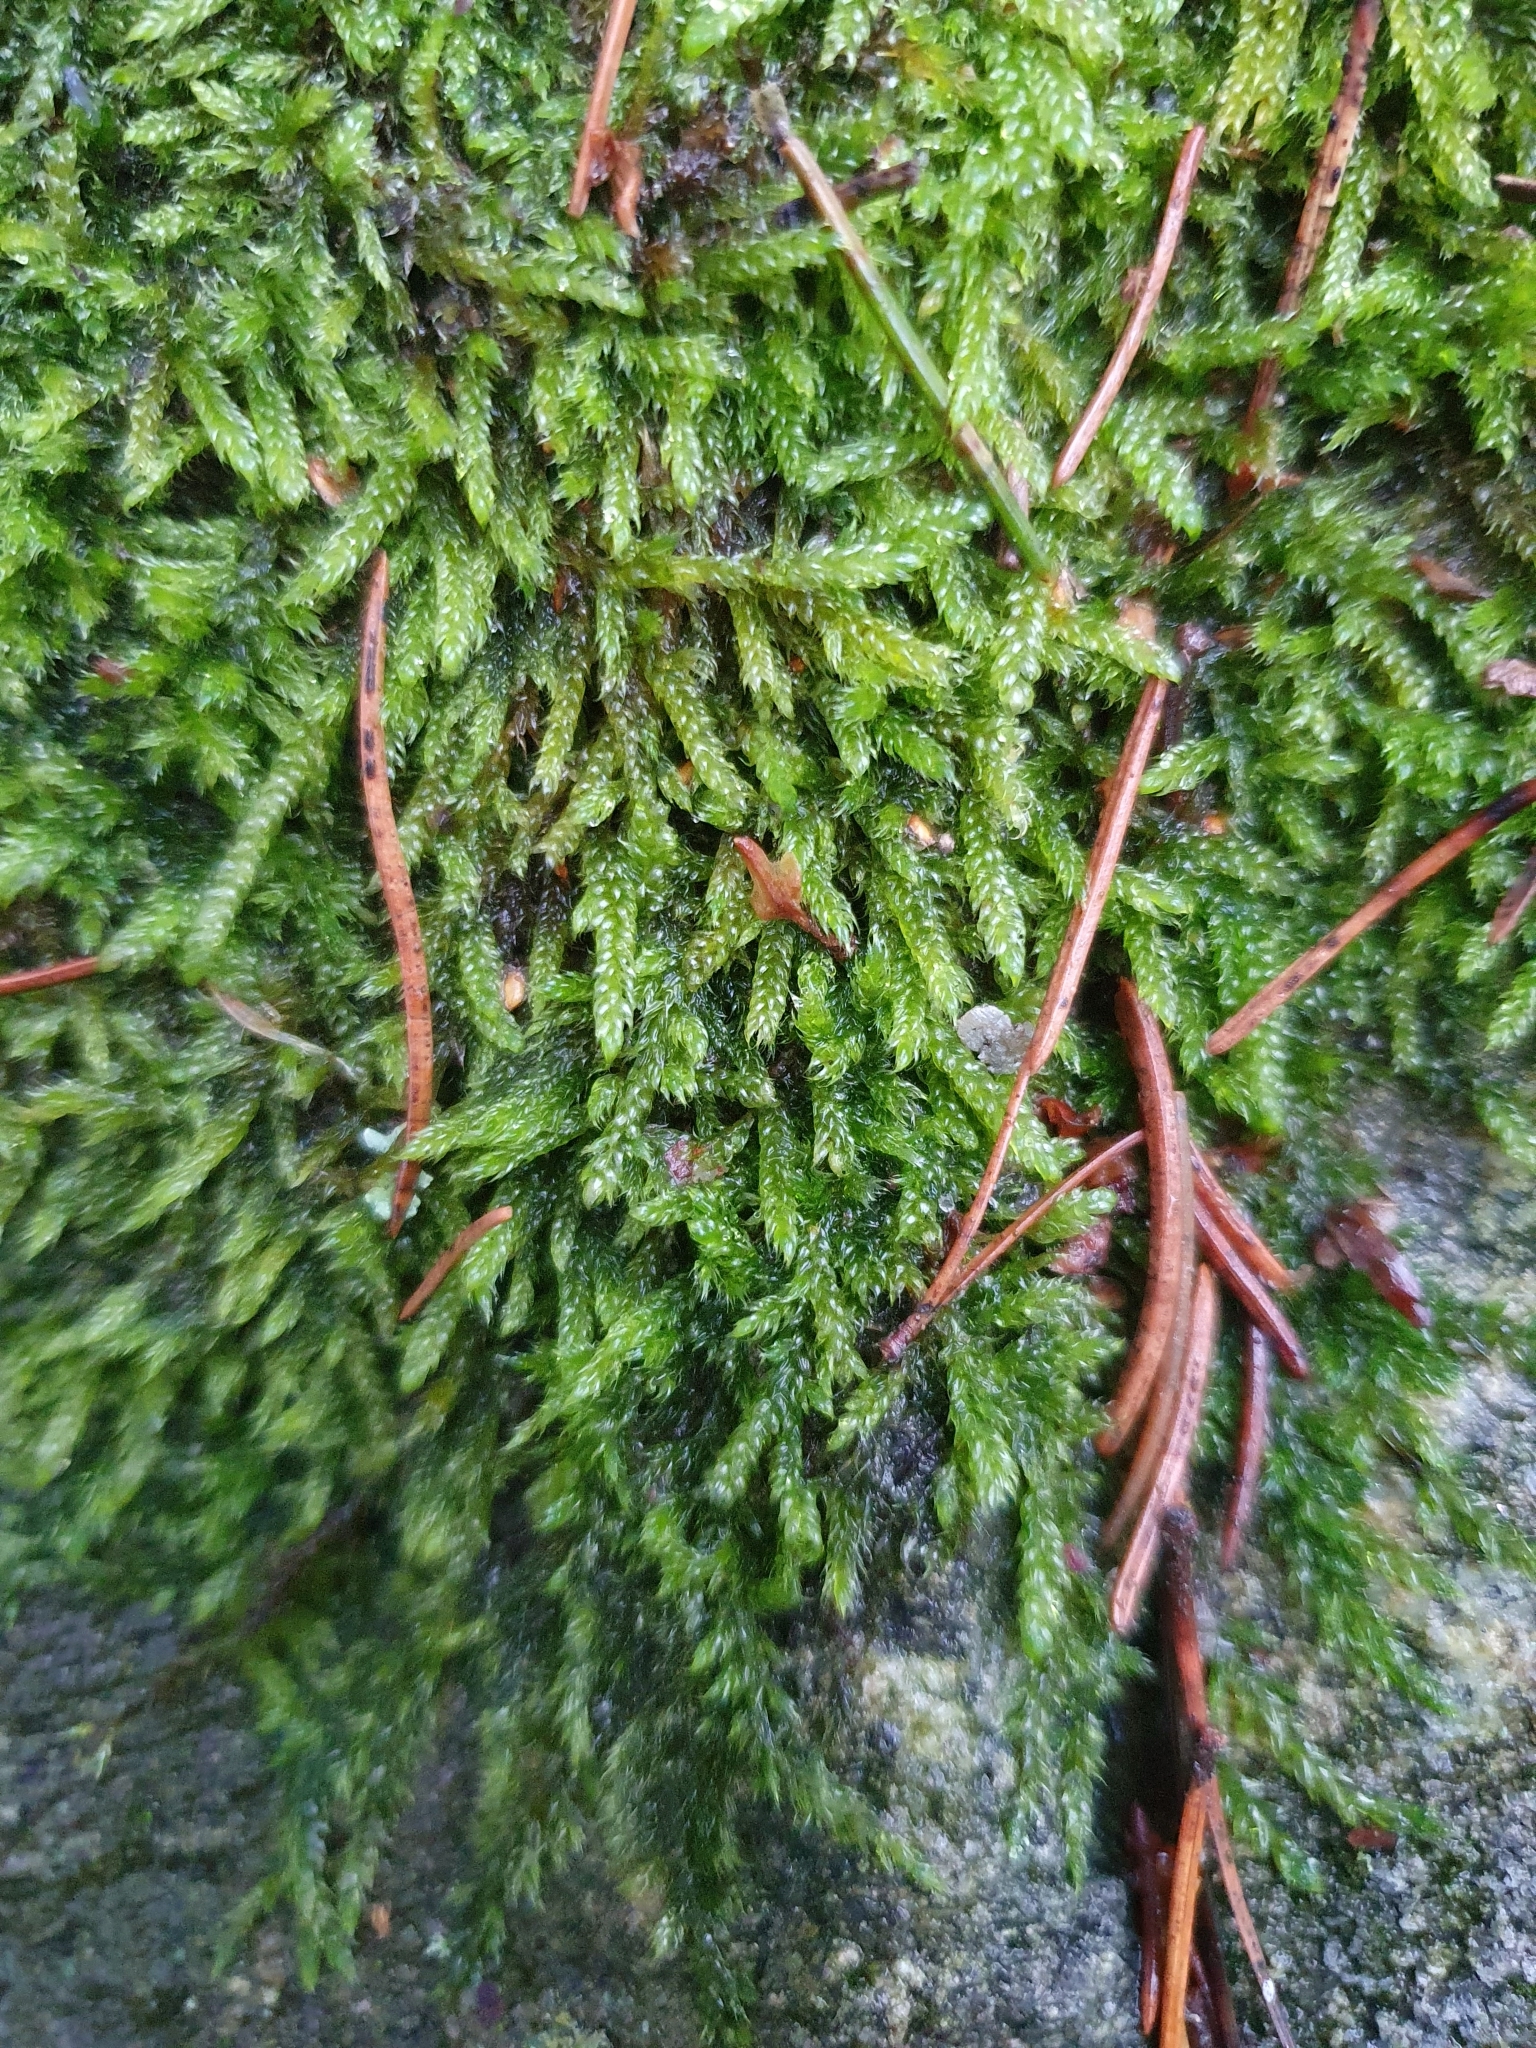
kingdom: Plantae
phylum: Bryophyta
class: Bryopsida
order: Hypnales
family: Hypnaceae
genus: Hypnum
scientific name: Hypnum cupressiforme
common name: Cypress-leaved plait-moss
